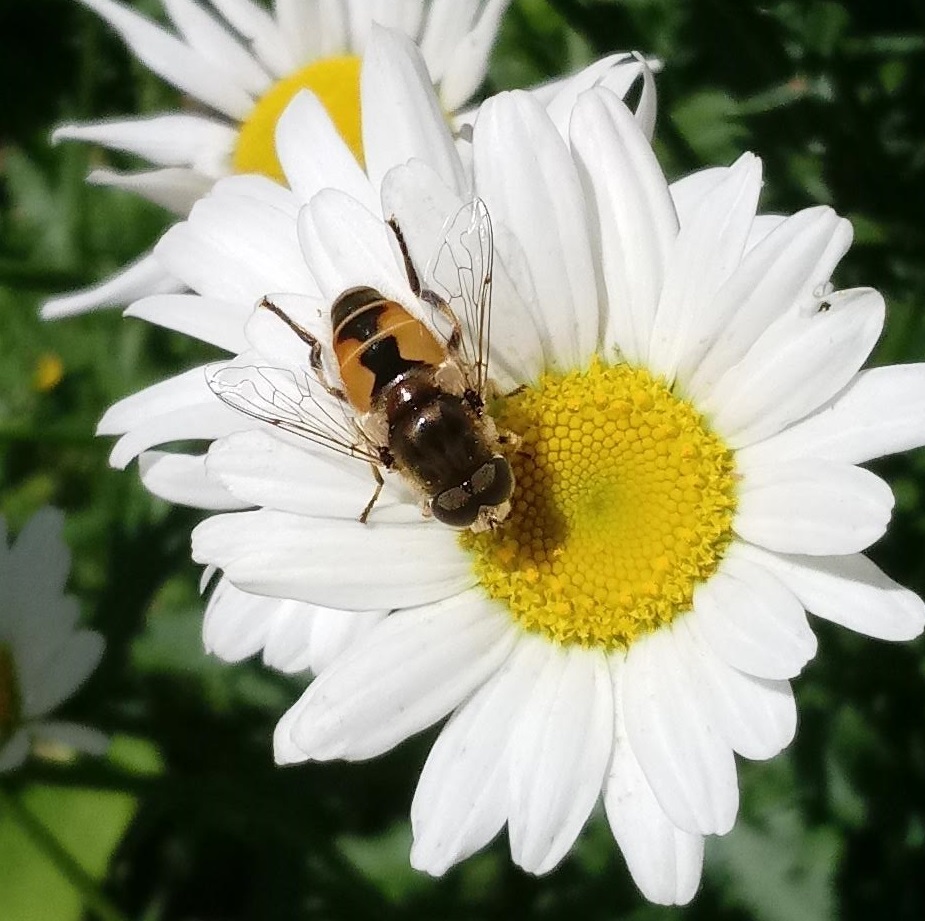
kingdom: Animalia
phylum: Arthropoda
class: Insecta
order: Diptera
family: Syrphidae
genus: Eristalis
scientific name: Eristalis arbustorum
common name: Hover fly
